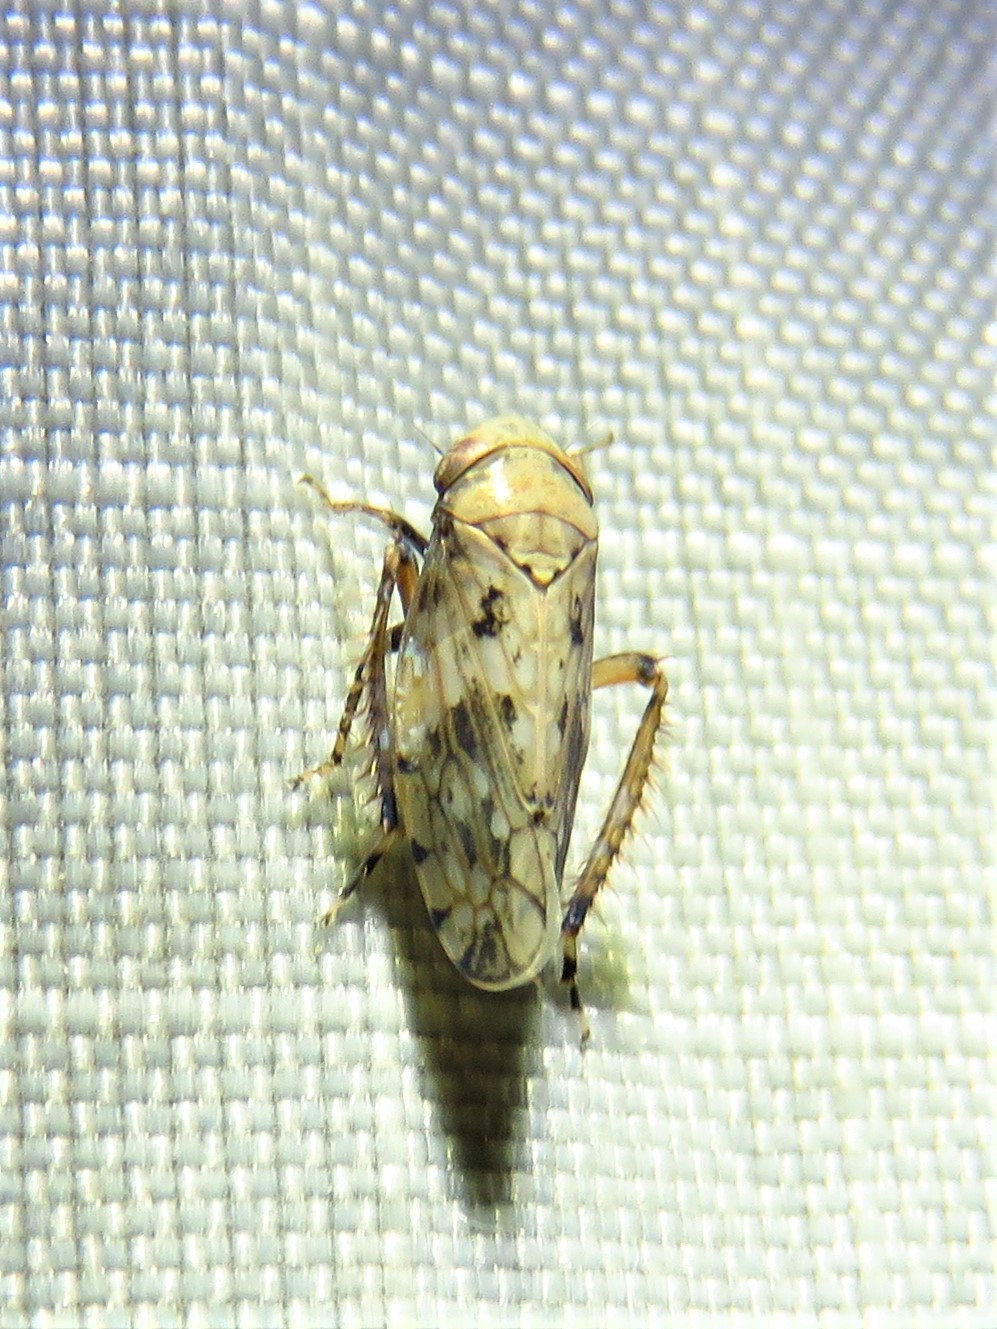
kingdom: Animalia
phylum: Arthropoda
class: Insecta
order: Hemiptera
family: Cicadellidae
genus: Menosoma
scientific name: Menosoma cinctum
